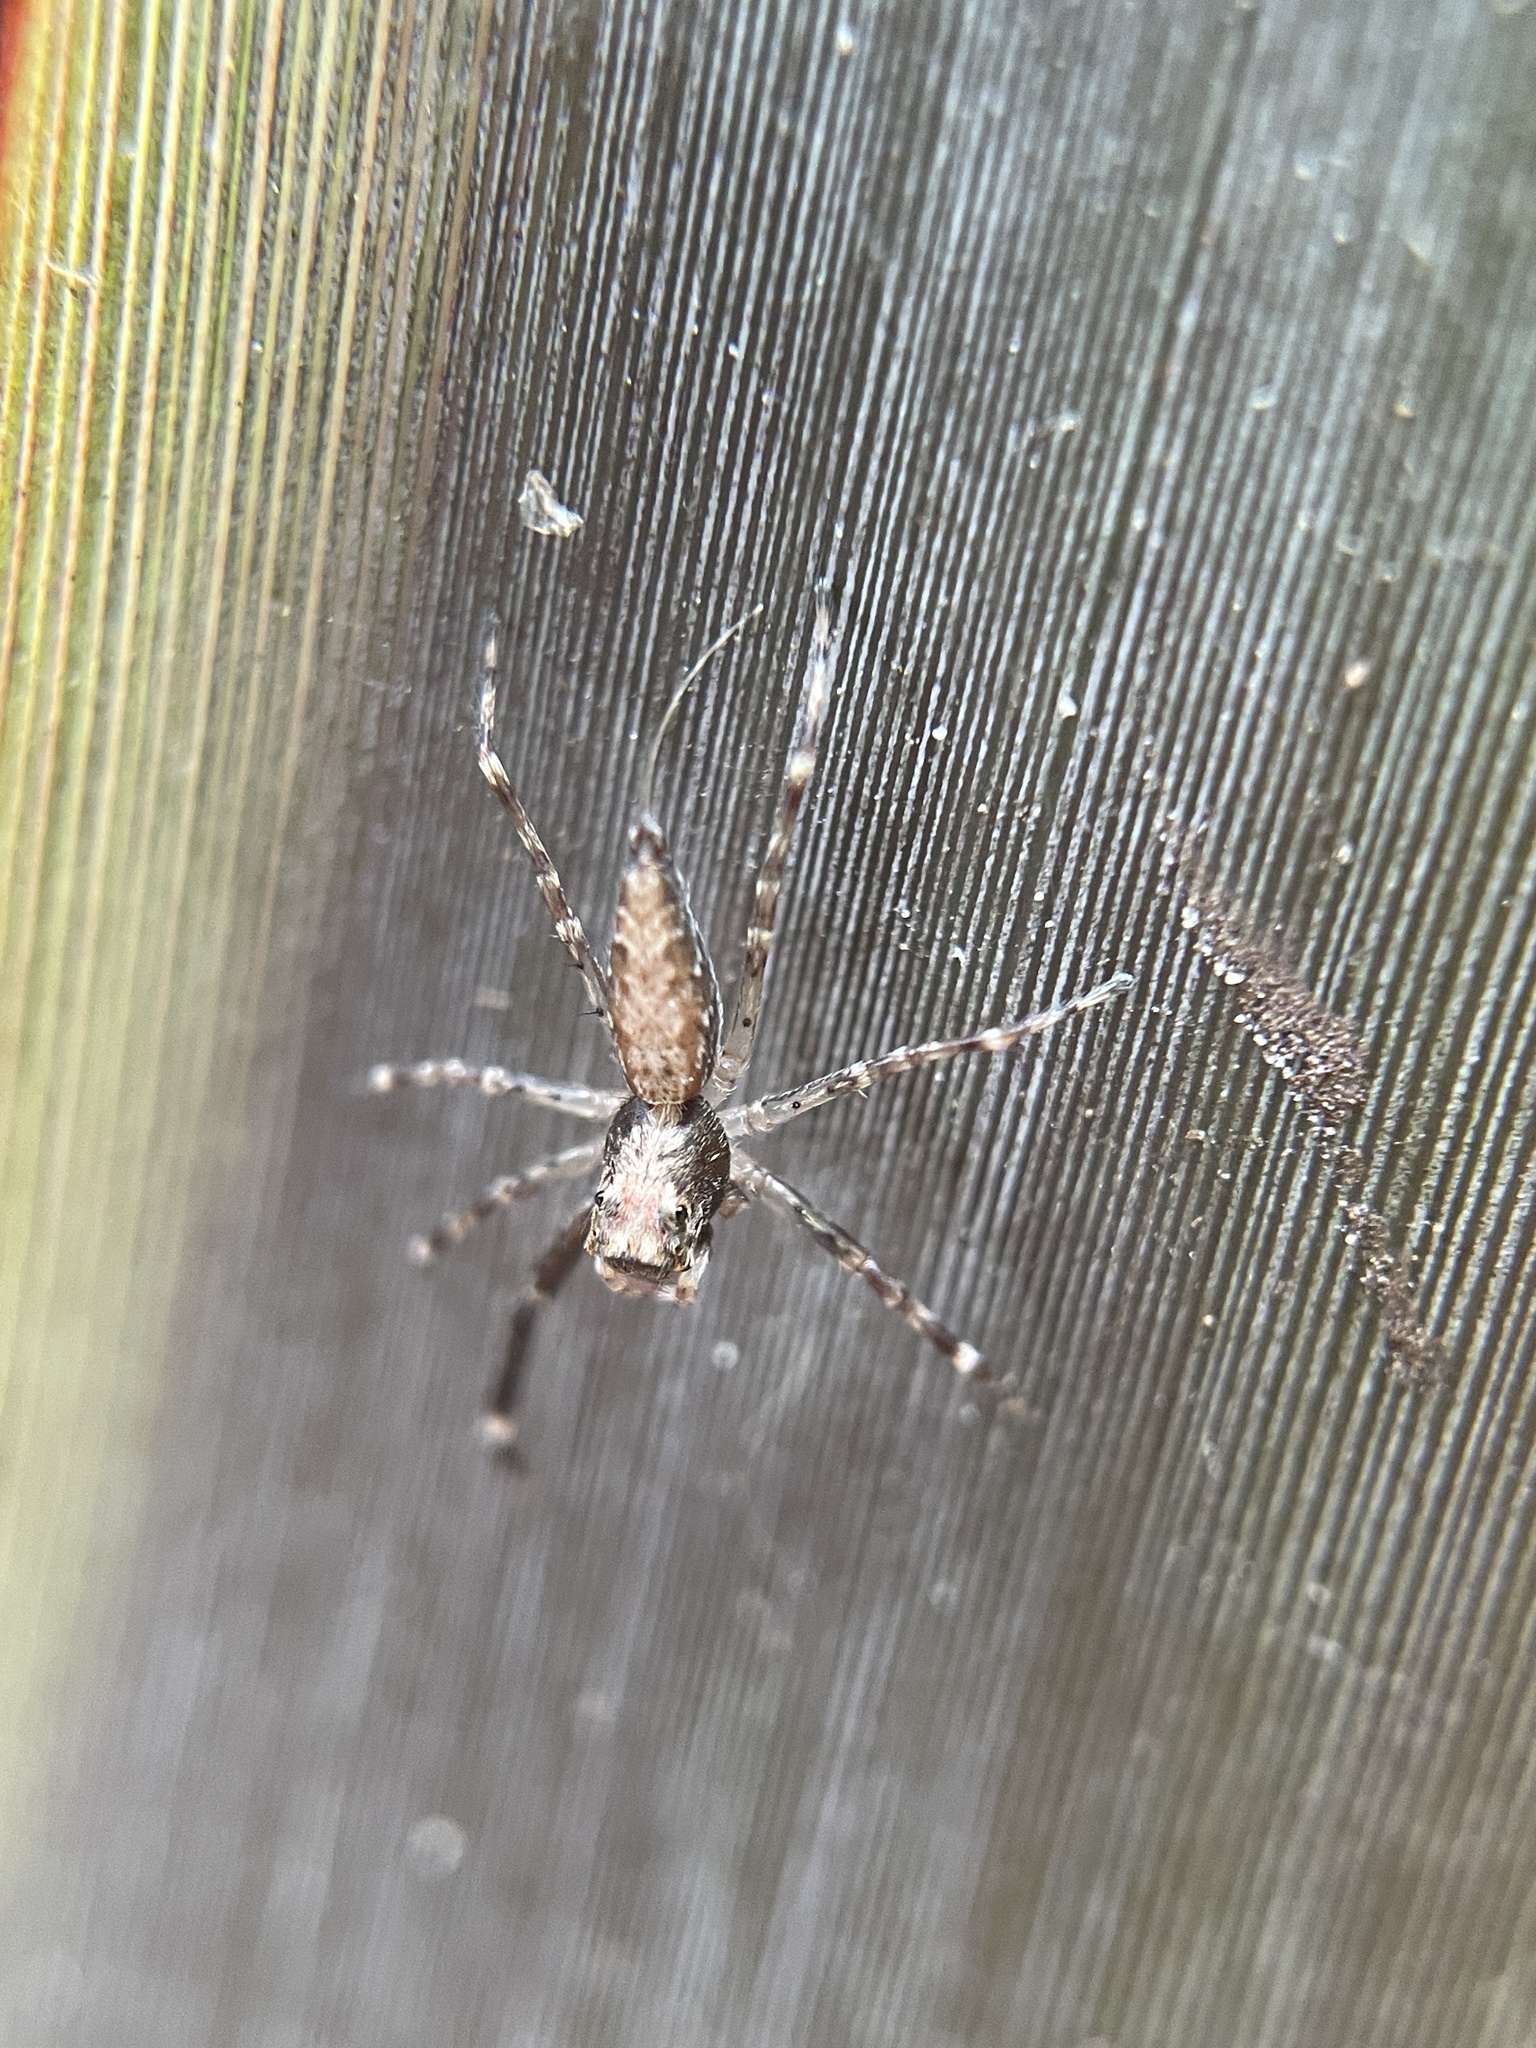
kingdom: Animalia
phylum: Arthropoda
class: Arachnida
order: Araneae
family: Salticidae
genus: Helpis
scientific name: Helpis minitabunda
